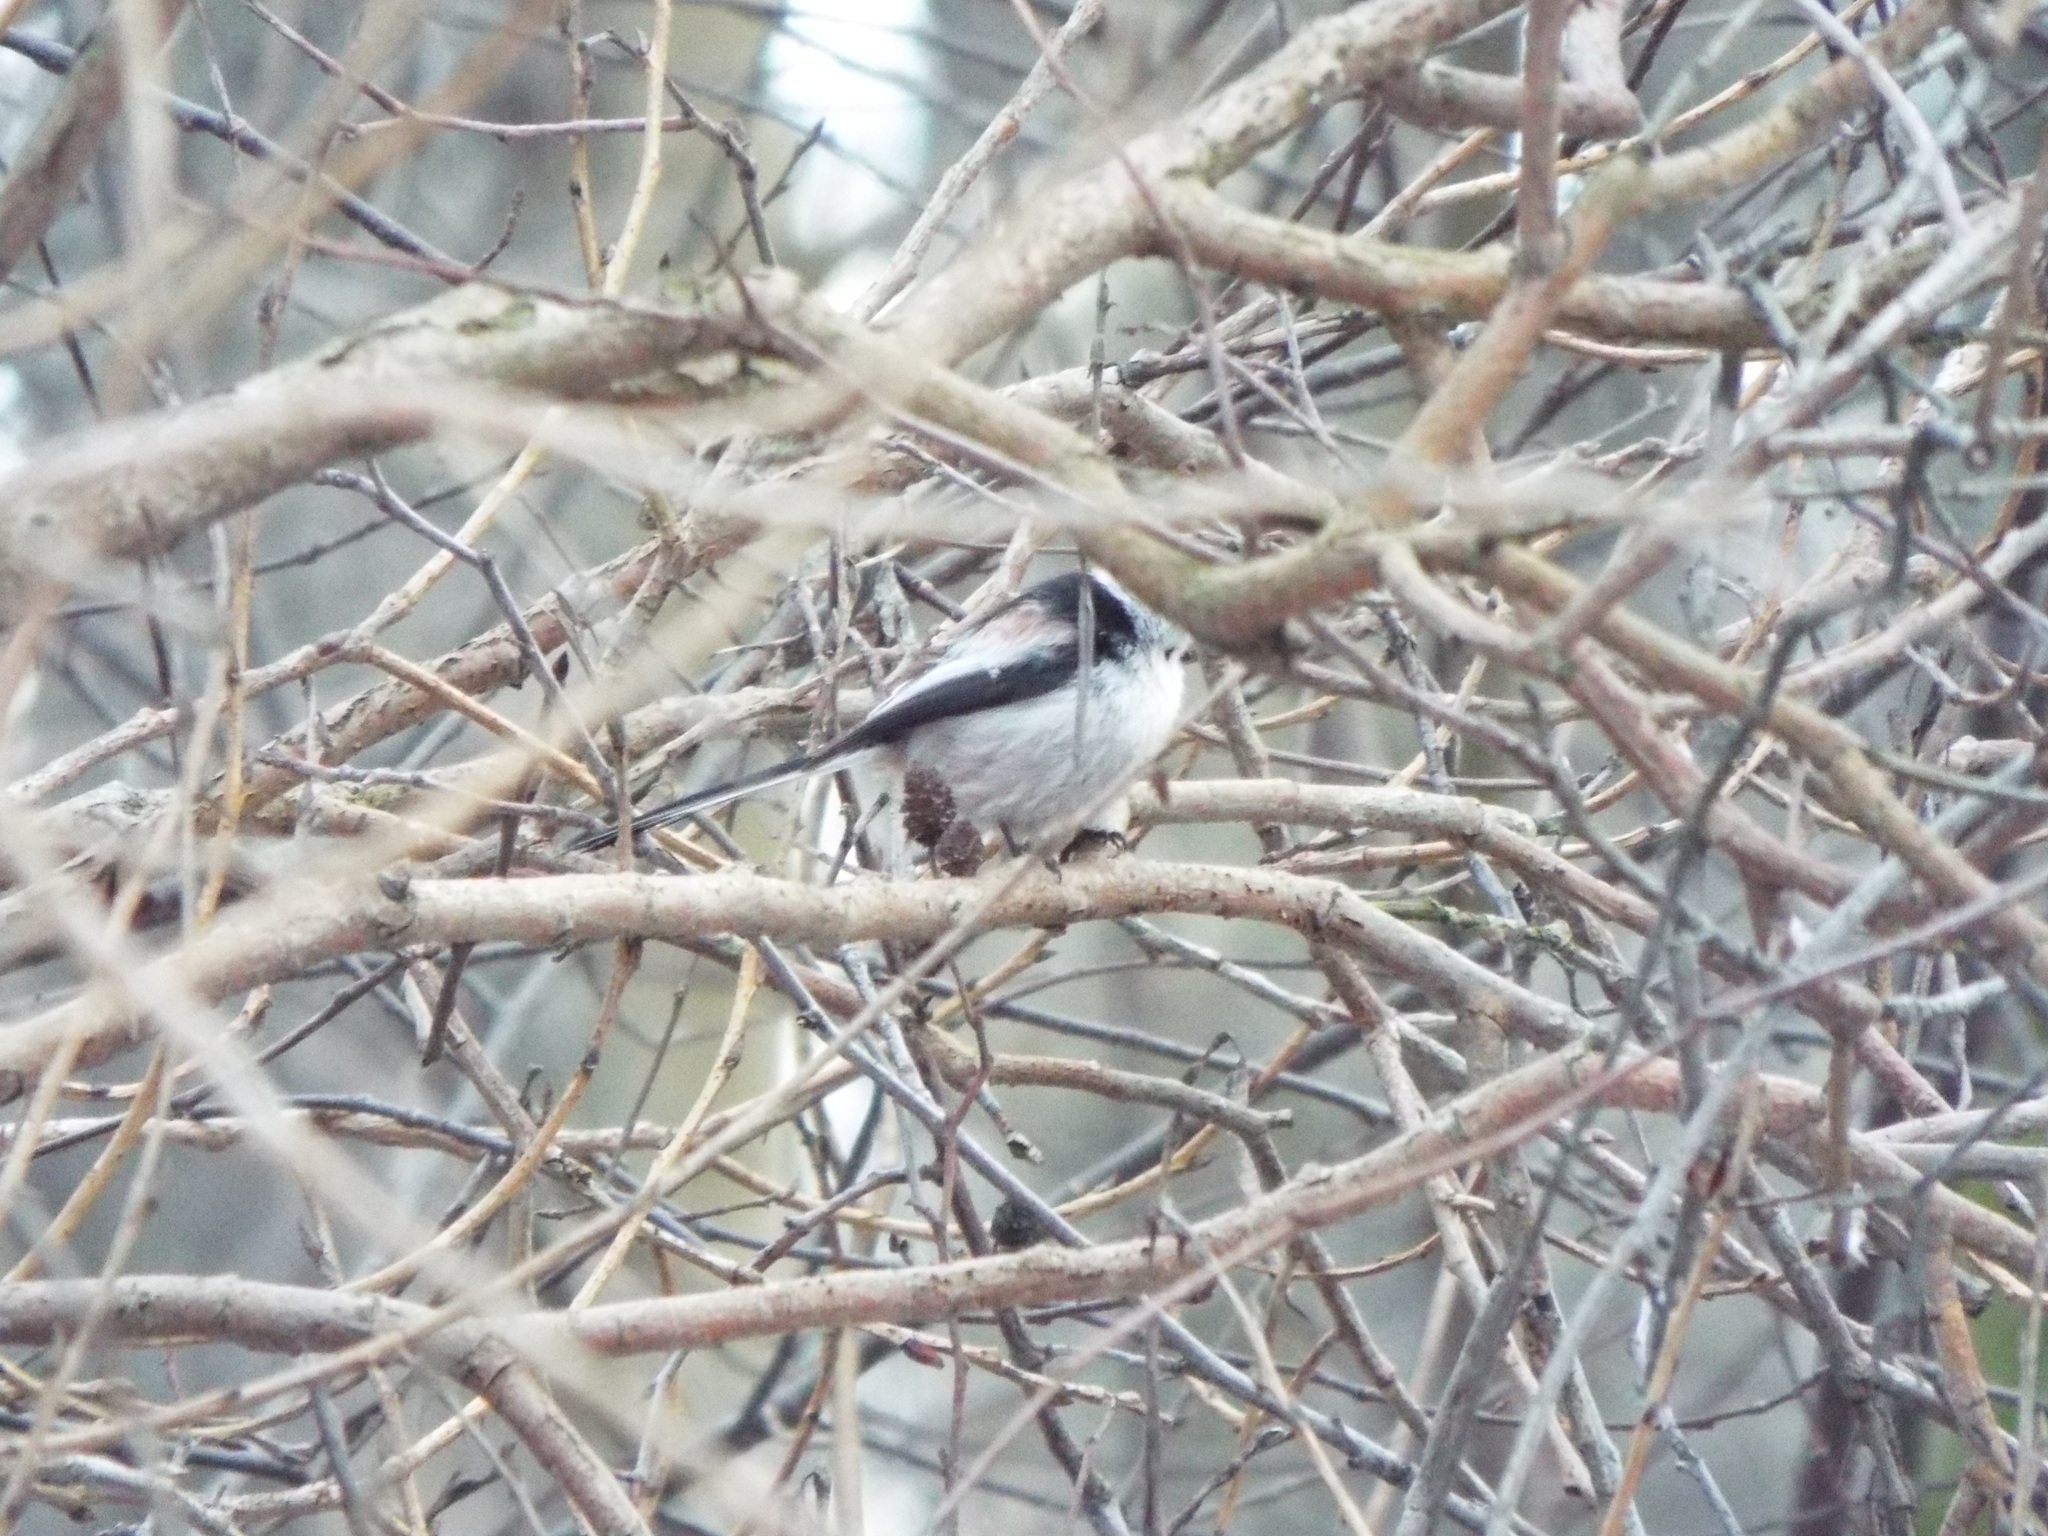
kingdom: Animalia
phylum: Chordata
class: Aves
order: Passeriformes
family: Aegithalidae
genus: Aegithalos
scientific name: Aegithalos caudatus
